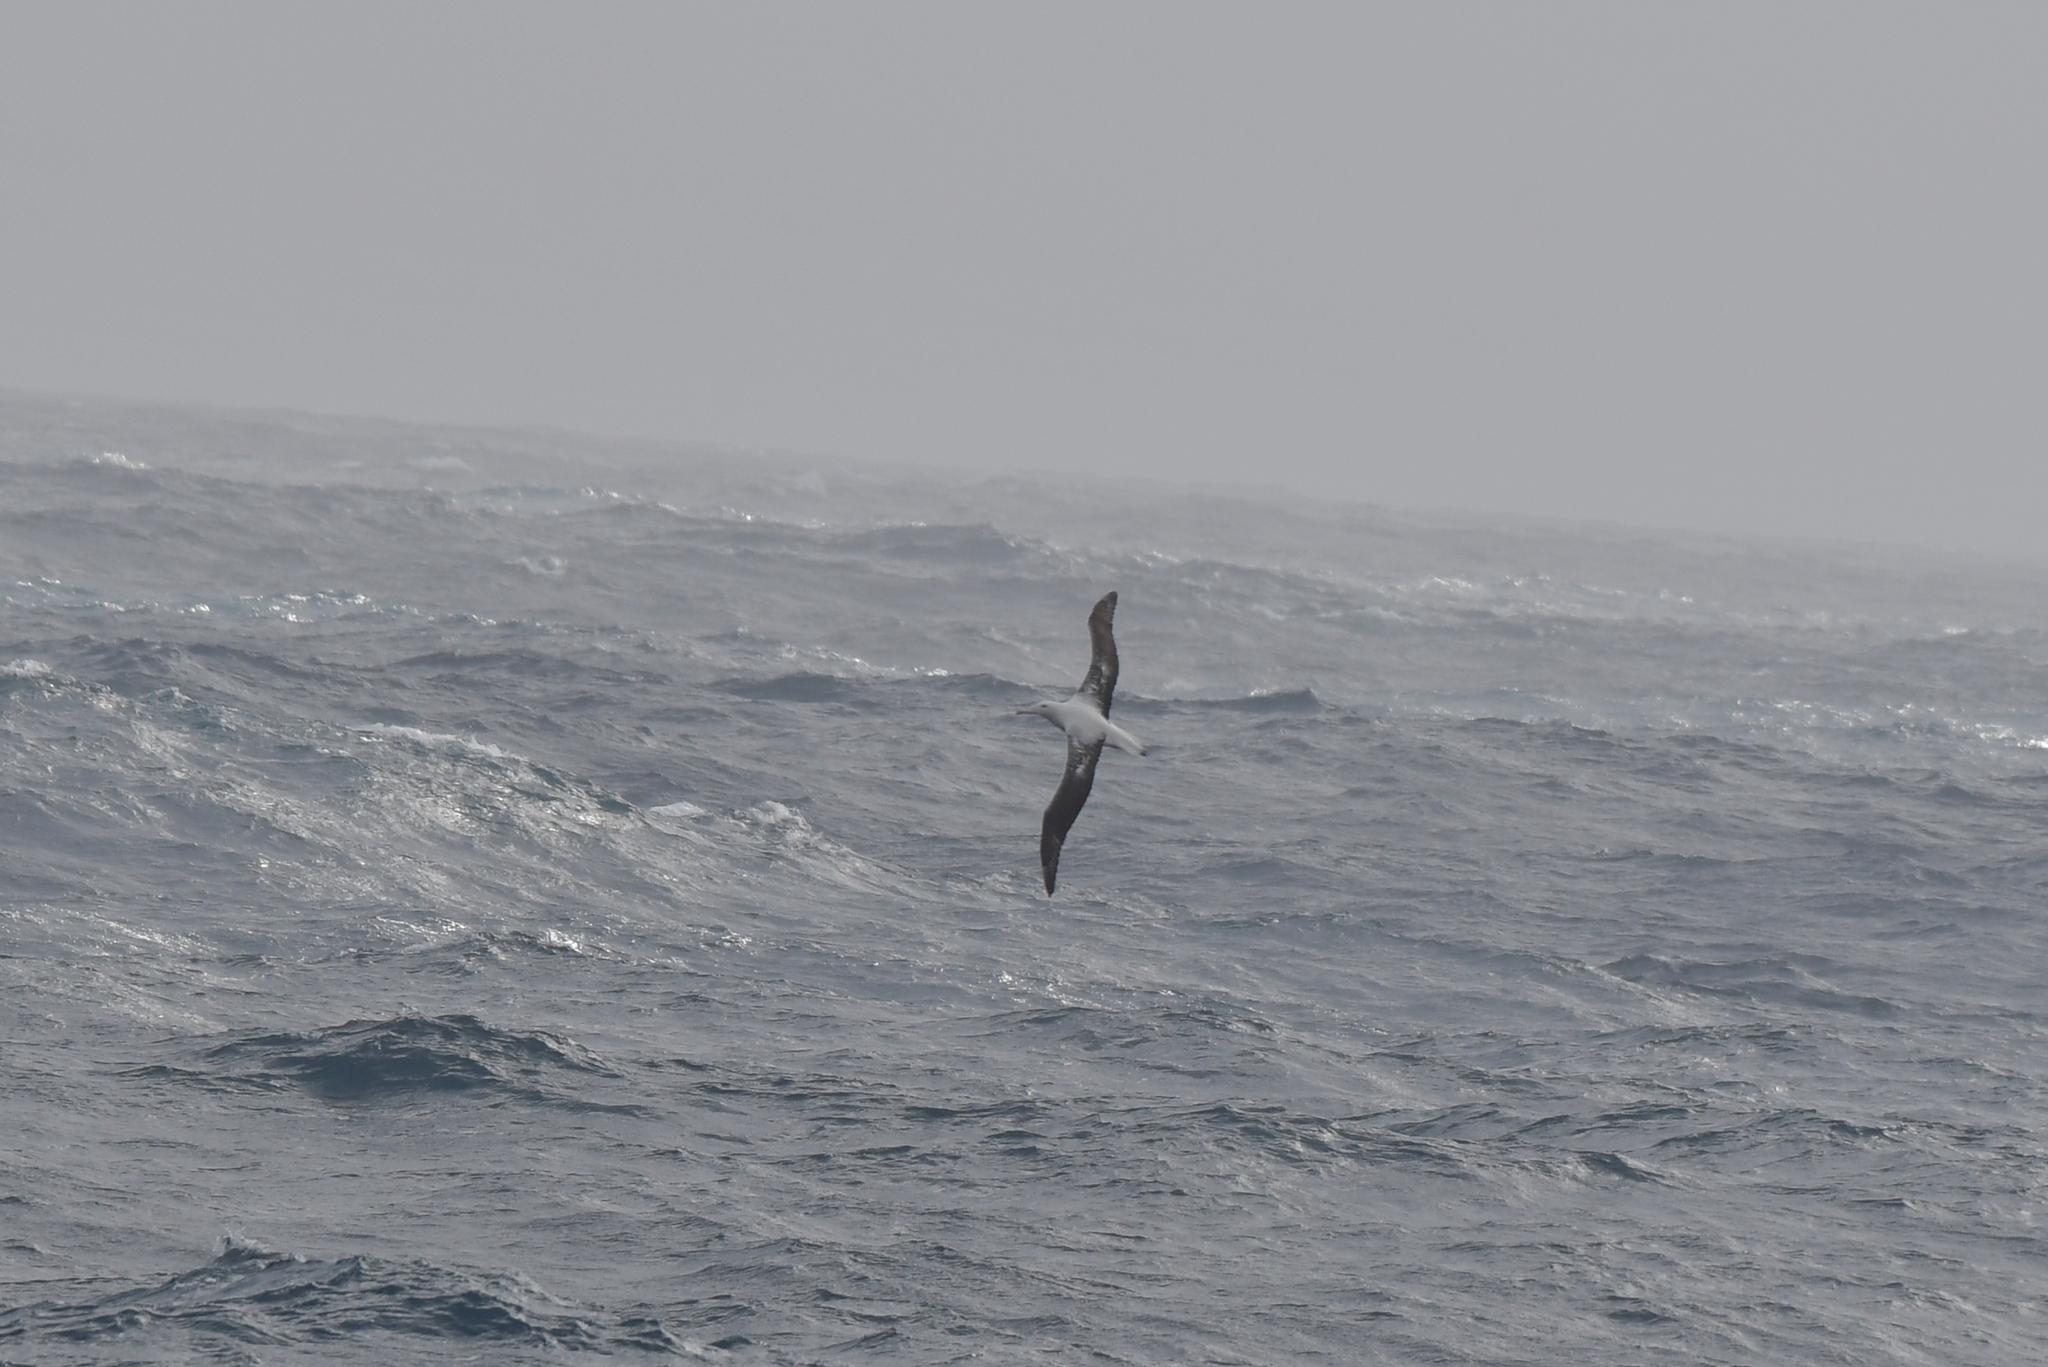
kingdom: Animalia
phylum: Chordata
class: Aves
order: Procellariiformes
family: Diomedeidae
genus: Diomedea
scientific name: Diomedea epomophora
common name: Southern royal albatross
